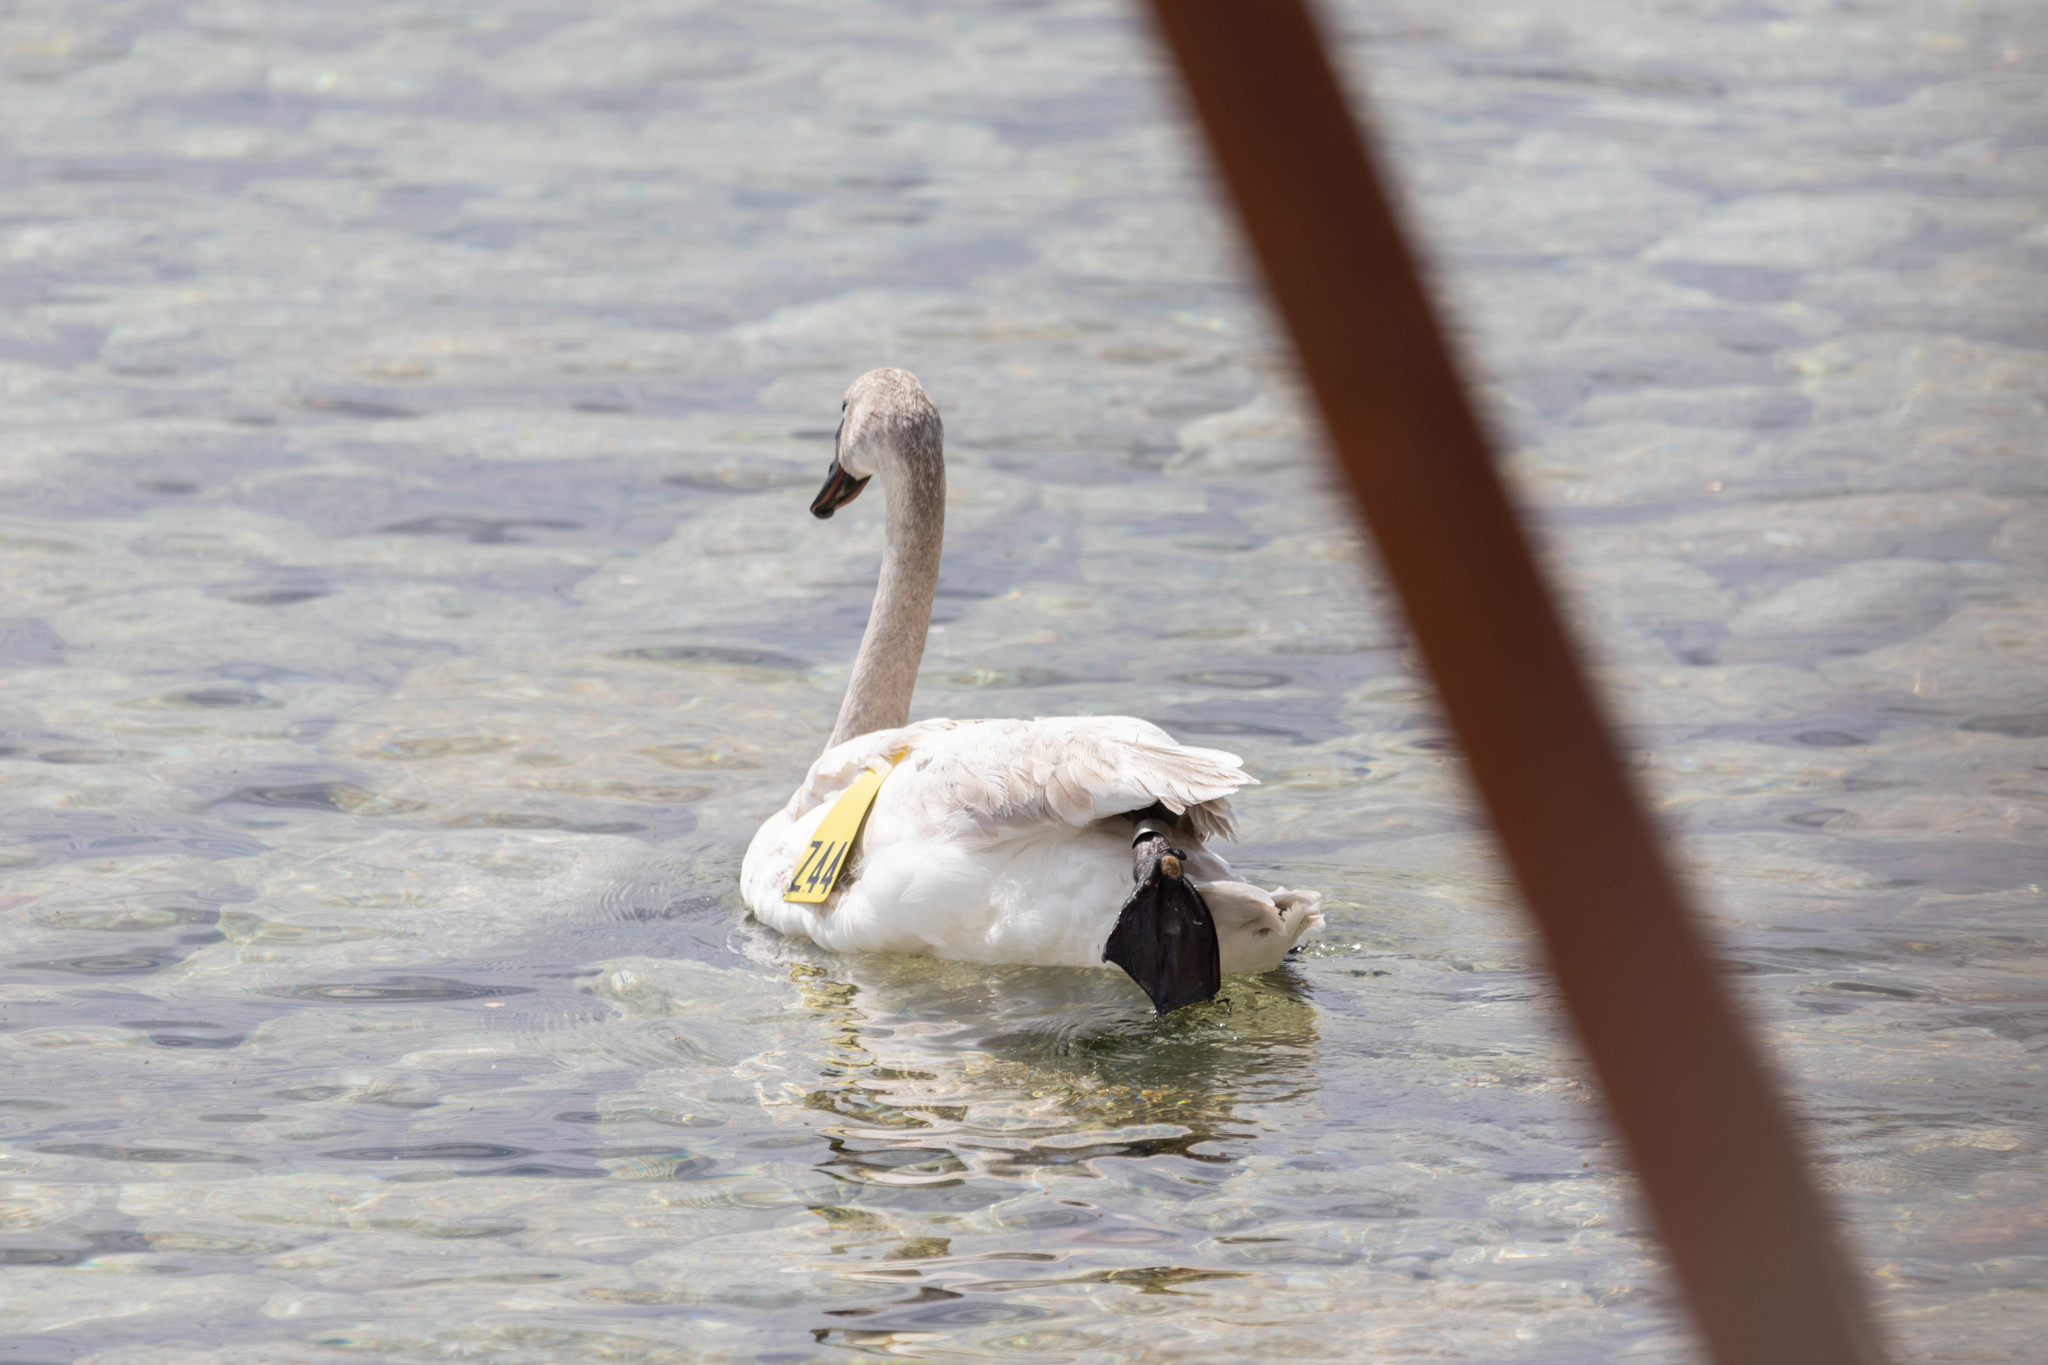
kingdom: Animalia
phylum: Chordata
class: Aves
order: Anseriformes
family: Anatidae
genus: Cygnus
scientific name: Cygnus buccinator
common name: Trumpeter swan
